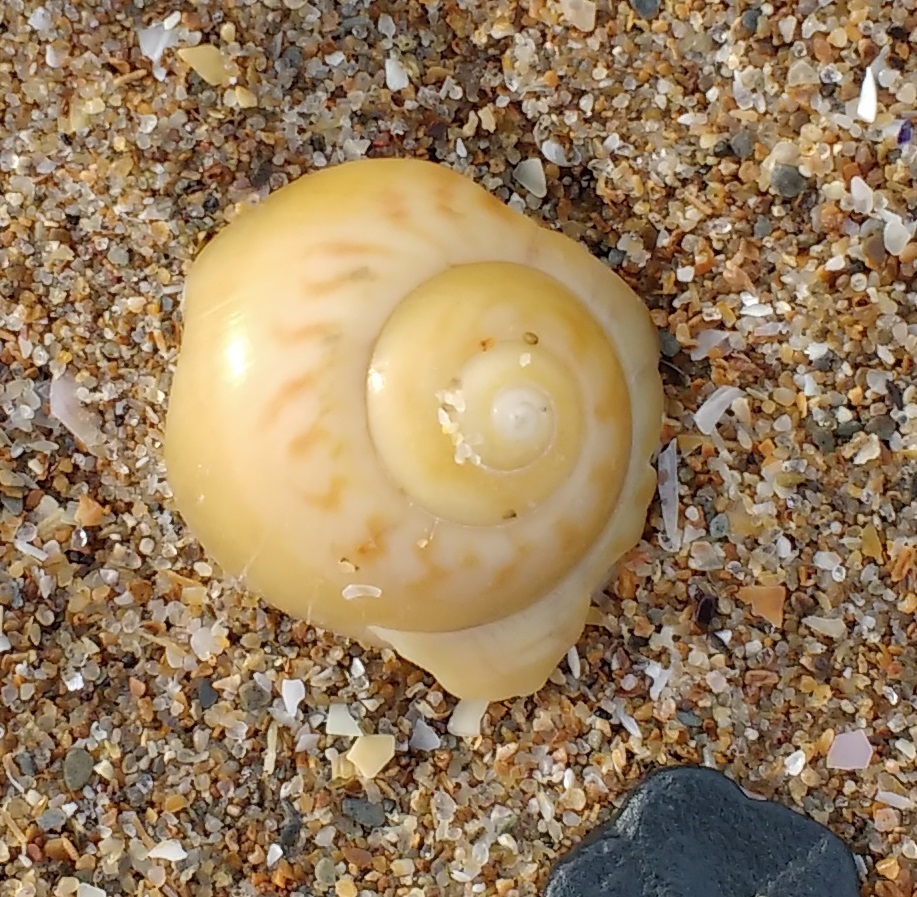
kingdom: Animalia
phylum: Mollusca
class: Gastropoda
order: Littorinimorpha
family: Naticidae
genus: Euspira
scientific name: Euspira catena
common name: Necklace shell
